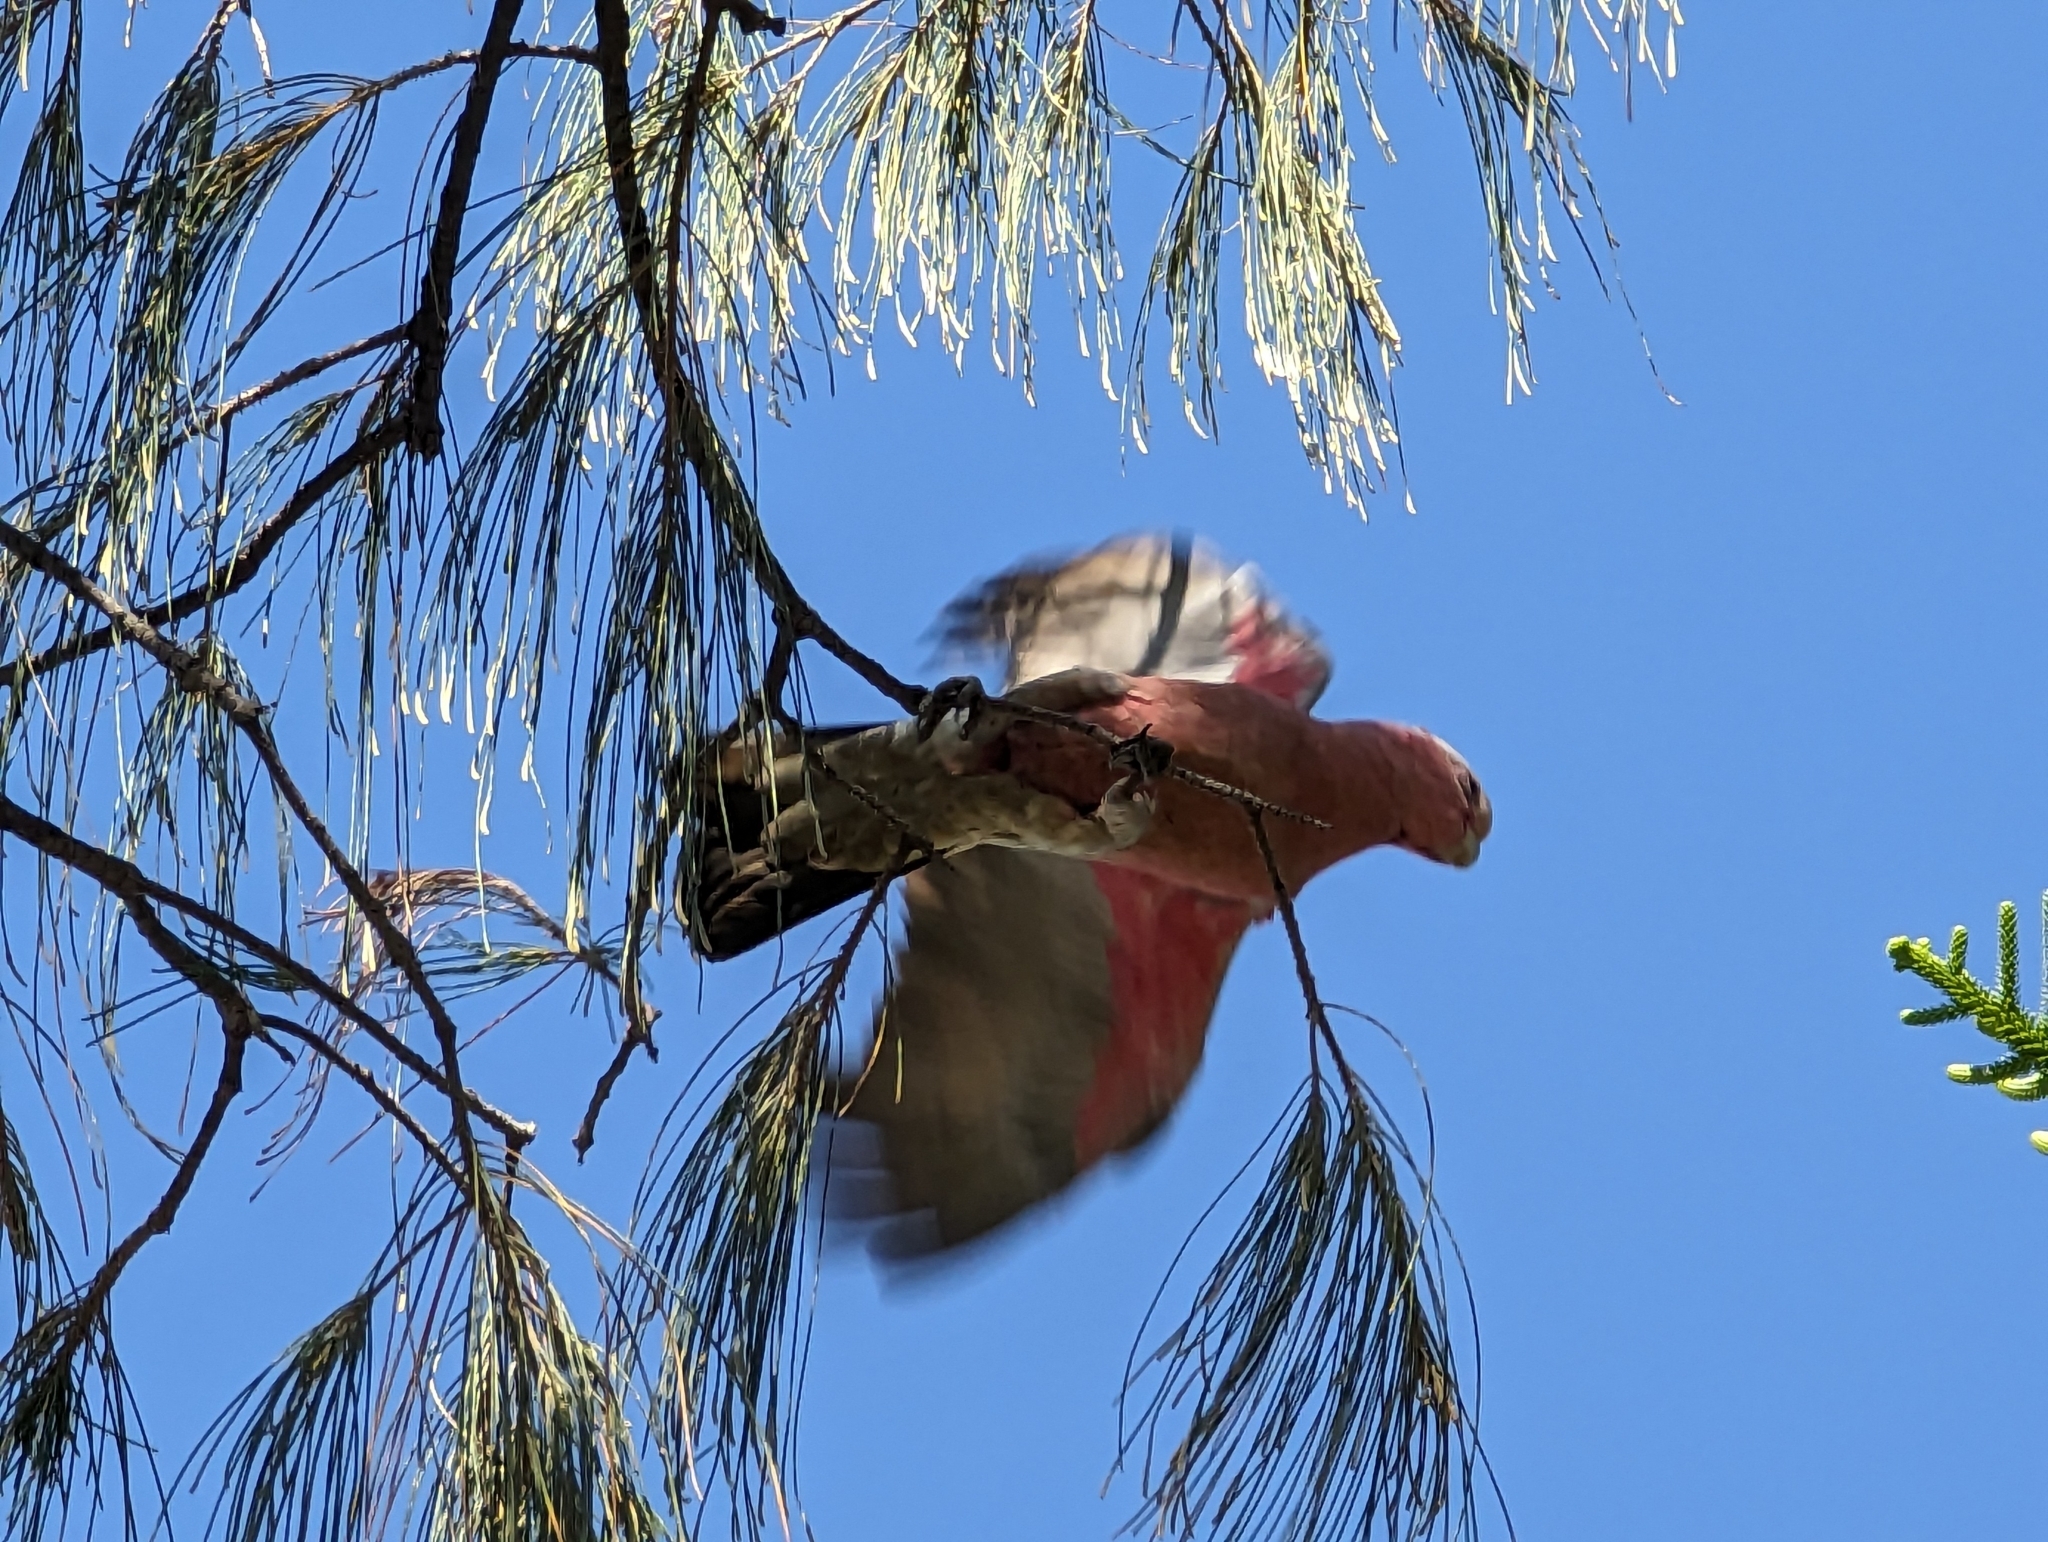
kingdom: Animalia
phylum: Chordata
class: Aves
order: Psittaciformes
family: Psittacidae
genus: Eolophus
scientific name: Eolophus roseicapilla
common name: Galah
